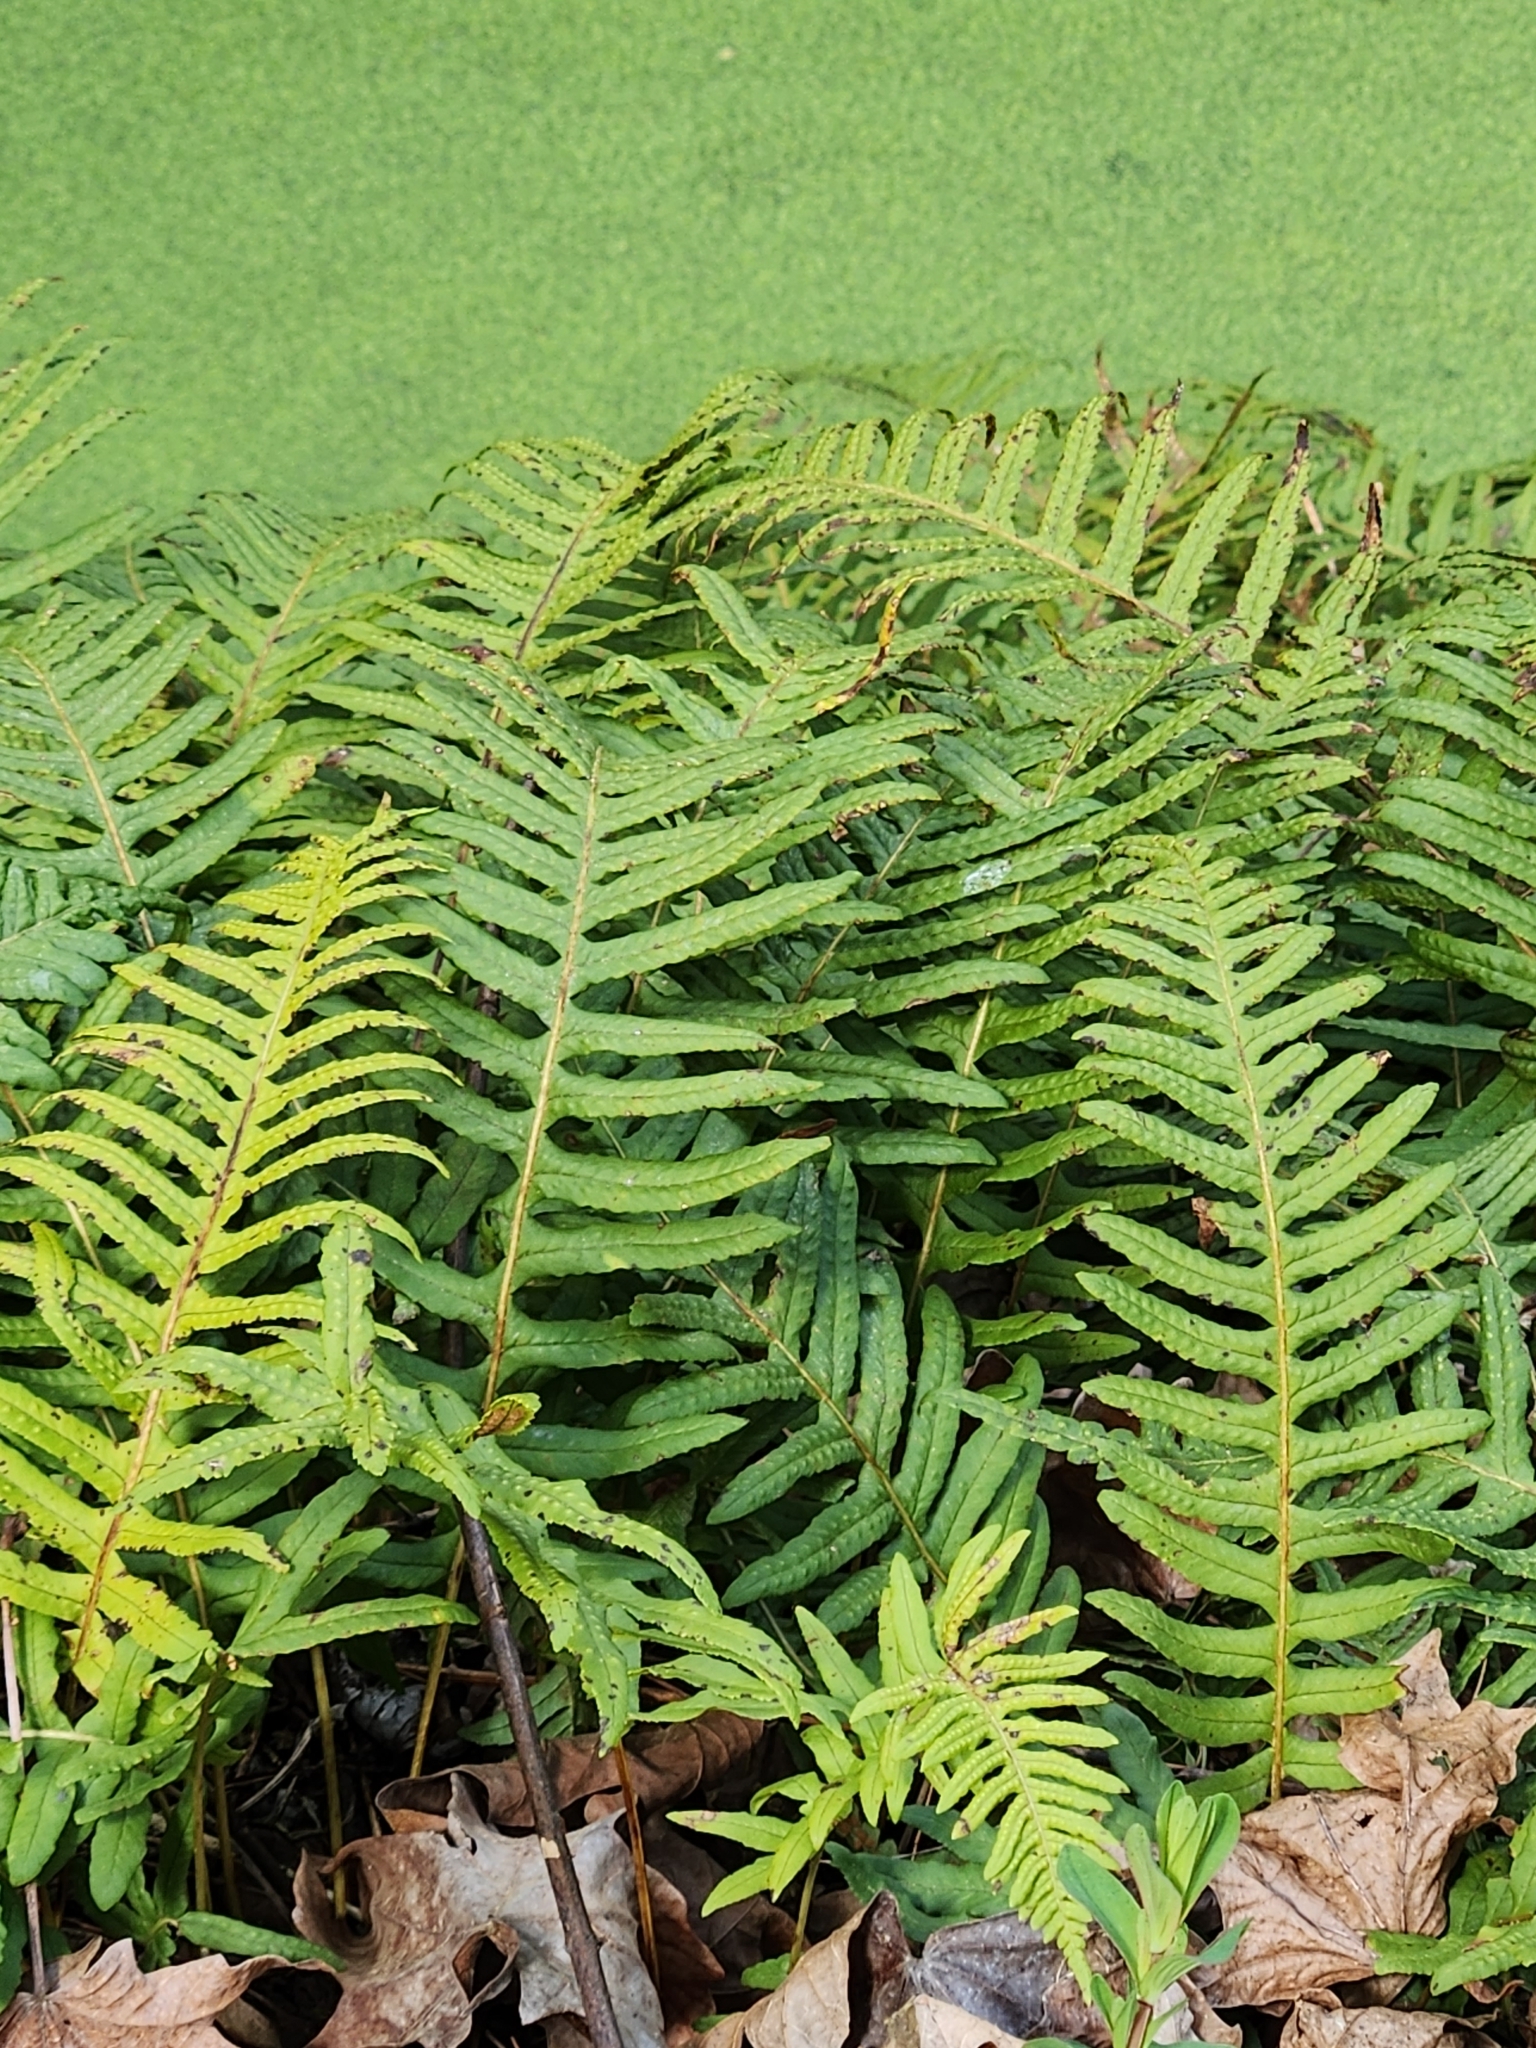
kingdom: Plantae
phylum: Tracheophyta
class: Polypodiopsida
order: Polypodiales
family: Polypodiaceae
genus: Polypodium
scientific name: Polypodium glycyrrhiza
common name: Licorice fern
